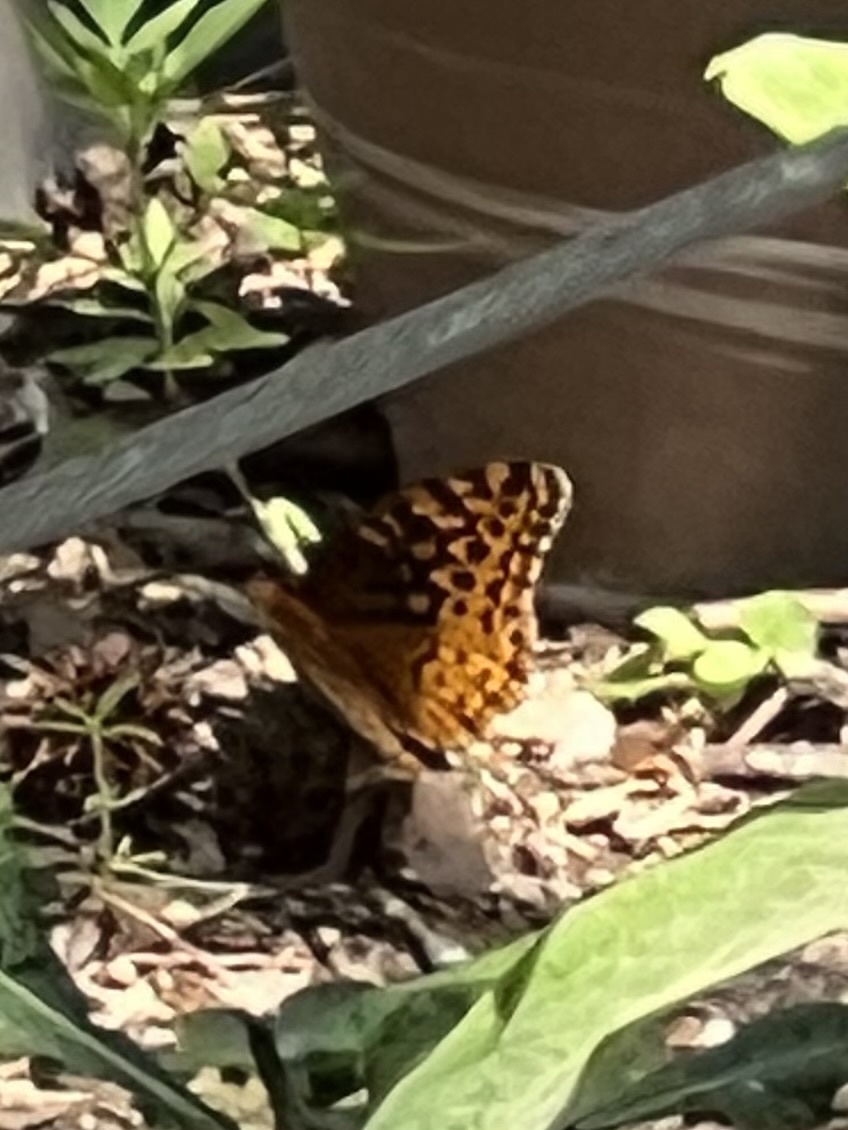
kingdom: Animalia
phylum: Arthropoda
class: Insecta
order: Lepidoptera
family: Nymphalidae
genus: Speyeria
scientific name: Speyeria cybele
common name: Great spangled fritillary
